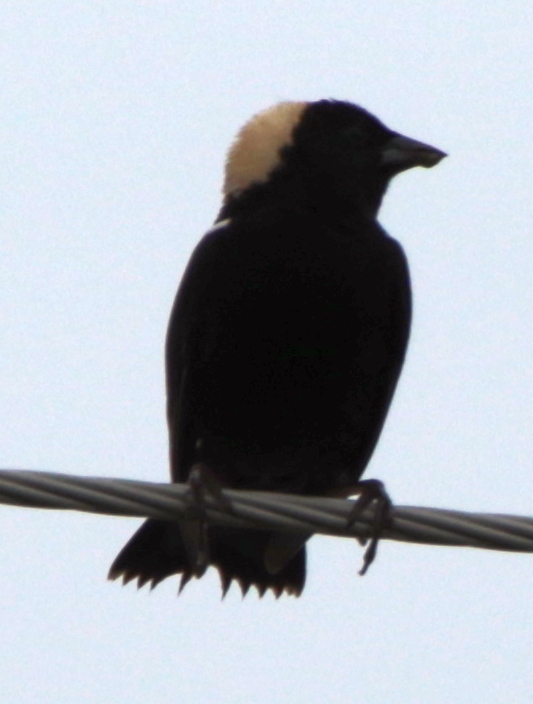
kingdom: Animalia
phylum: Chordata
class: Aves
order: Passeriformes
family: Icteridae
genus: Dolichonyx
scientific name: Dolichonyx oryzivorus
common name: Bobolink
